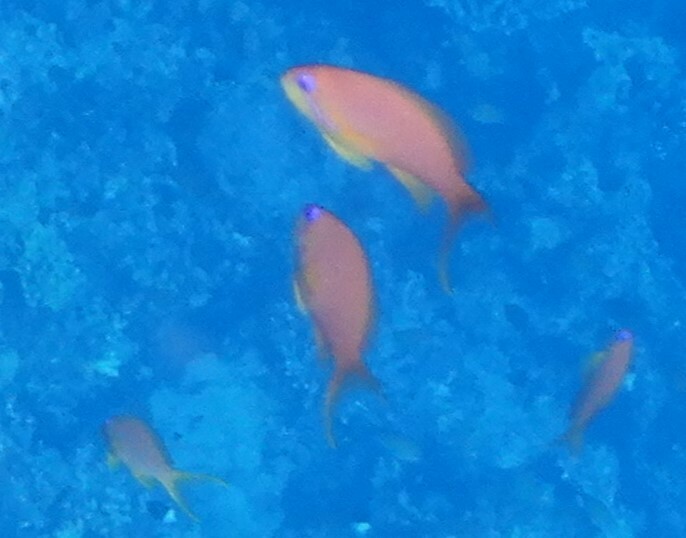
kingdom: Animalia
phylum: Chordata
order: Perciformes
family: Serranidae
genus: Pseudanthias
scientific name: Pseudanthias squamipinnis
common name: Scalefin anthias
